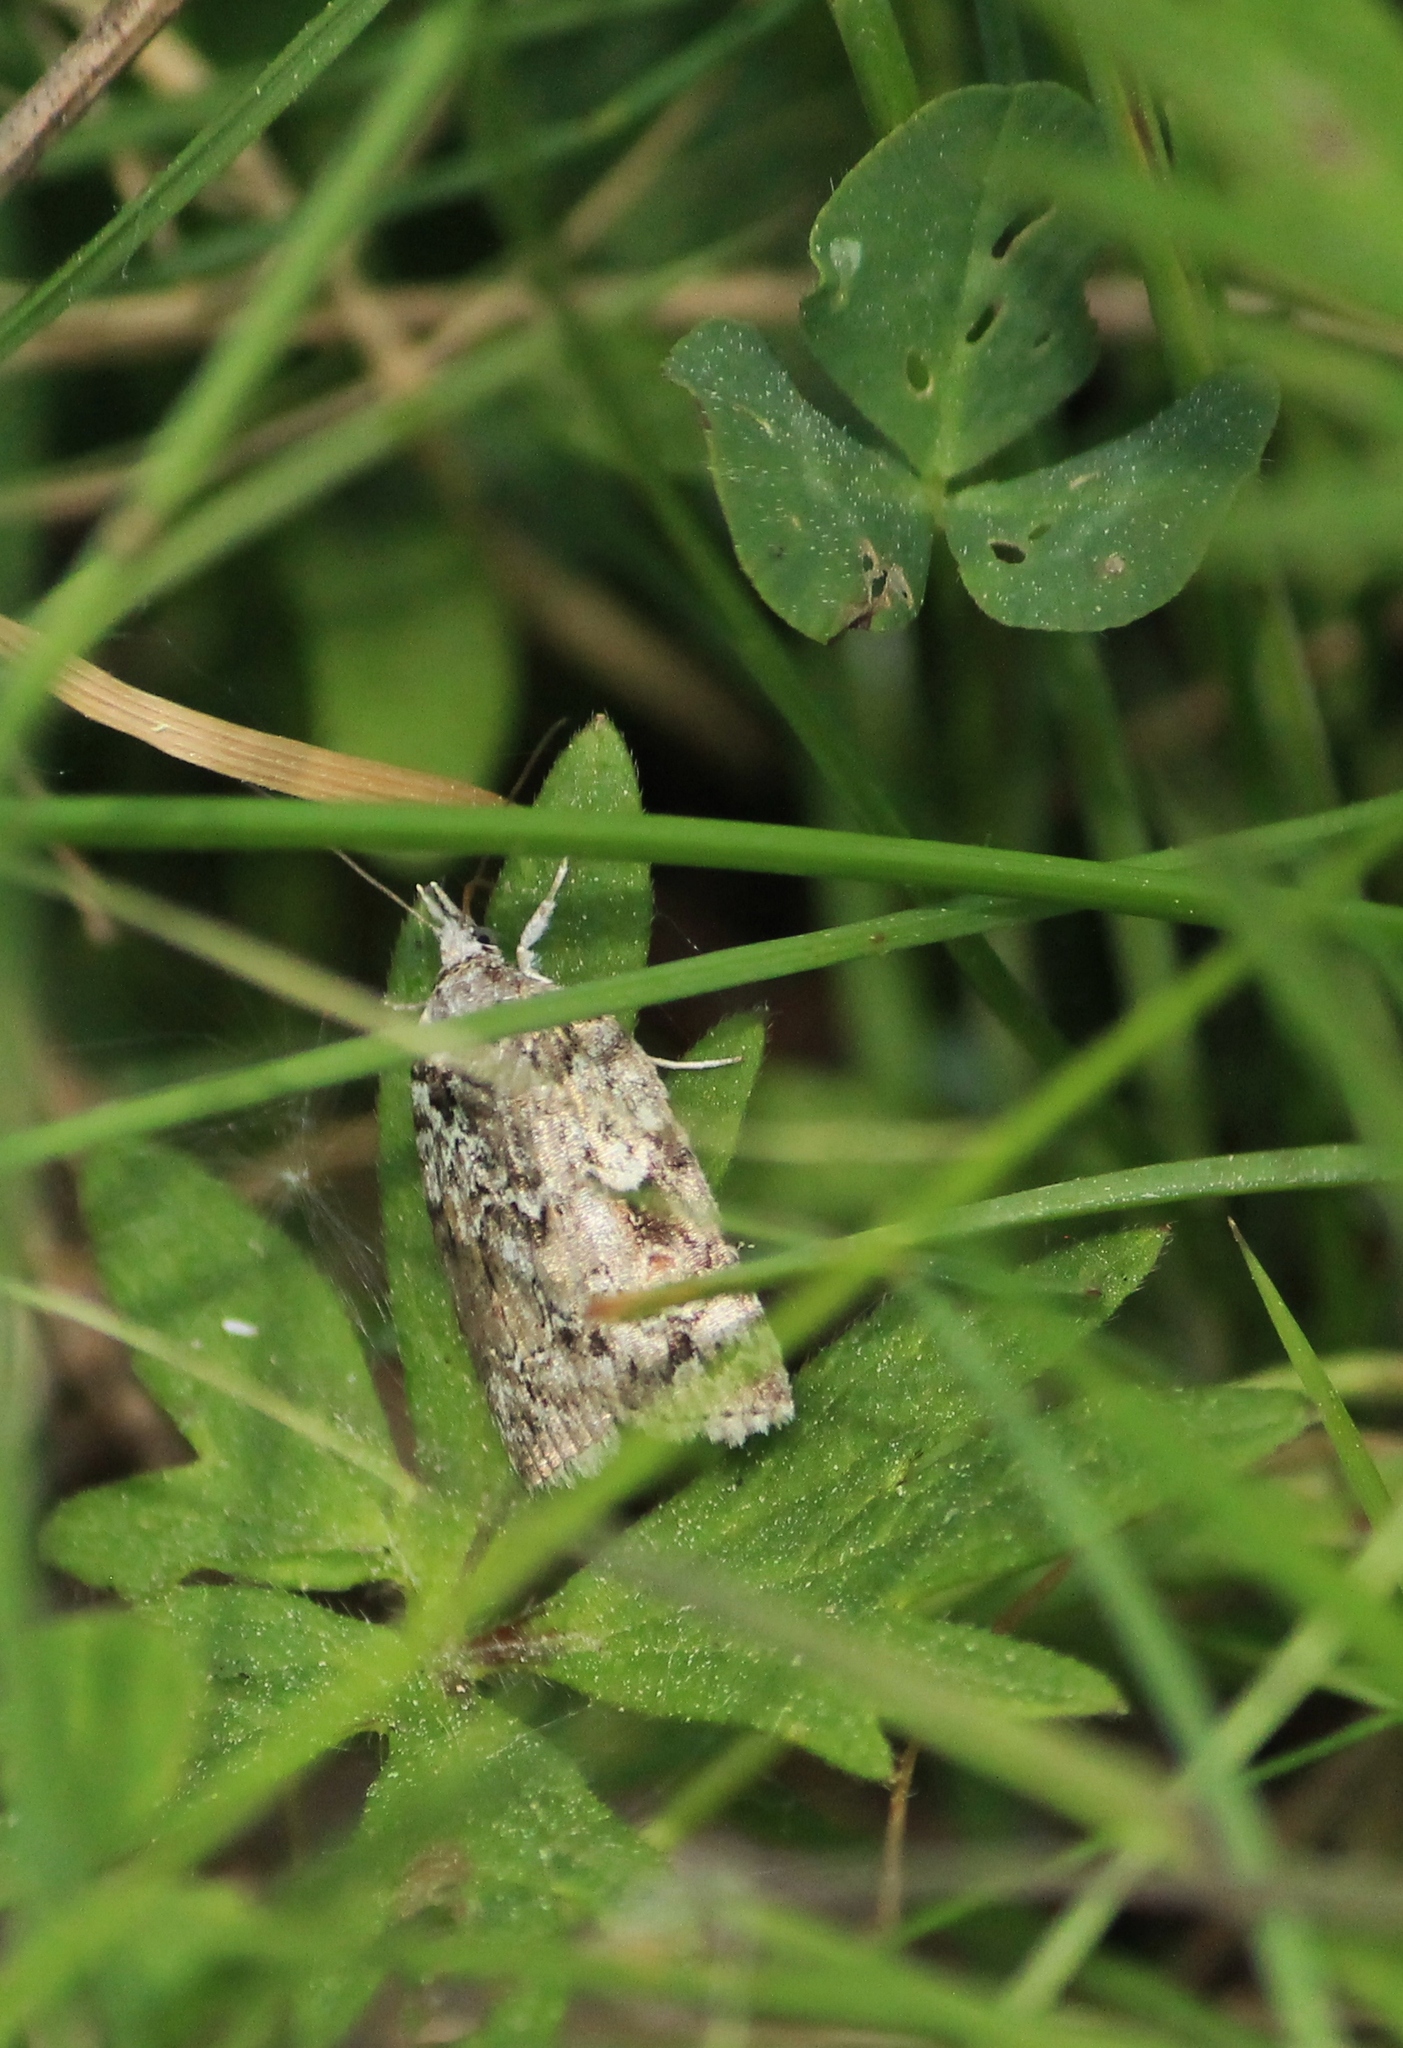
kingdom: Animalia
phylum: Arthropoda
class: Insecta
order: Lepidoptera
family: Nolidae
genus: Nycteola
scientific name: Nycteola degenerana
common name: Swallow nycteoline
